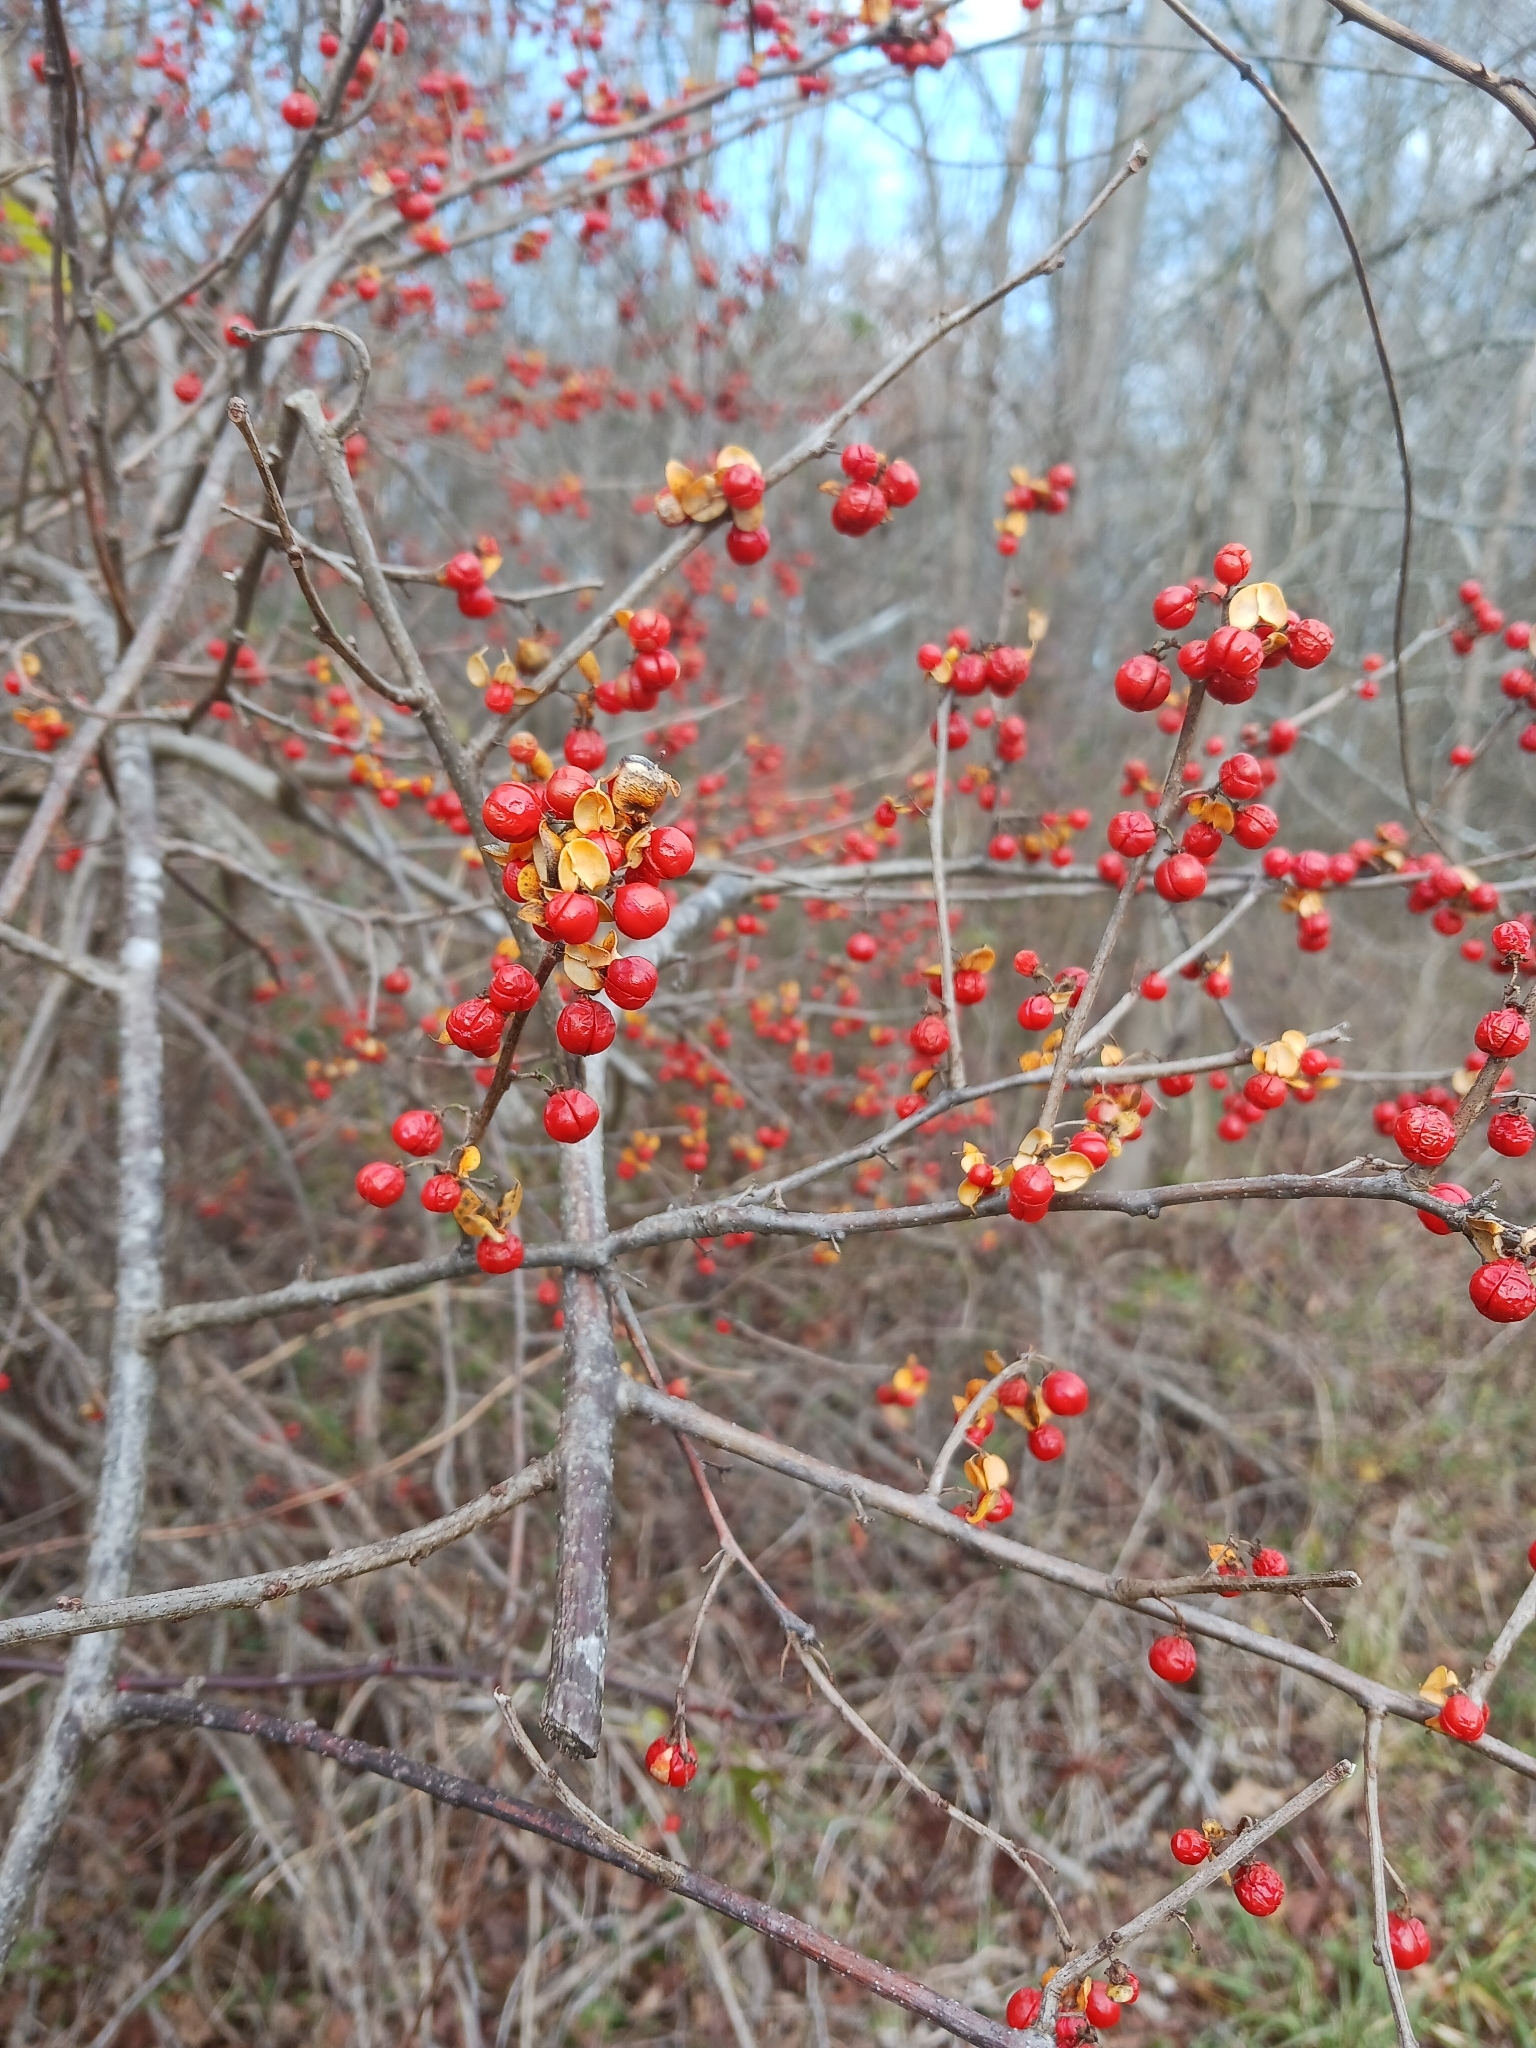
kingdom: Plantae
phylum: Tracheophyta
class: Magnoliopsida
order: Celastrales
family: Celastraceae
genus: Celastrus
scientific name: Celastrus orbiculatus
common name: Oriental bittersweet
